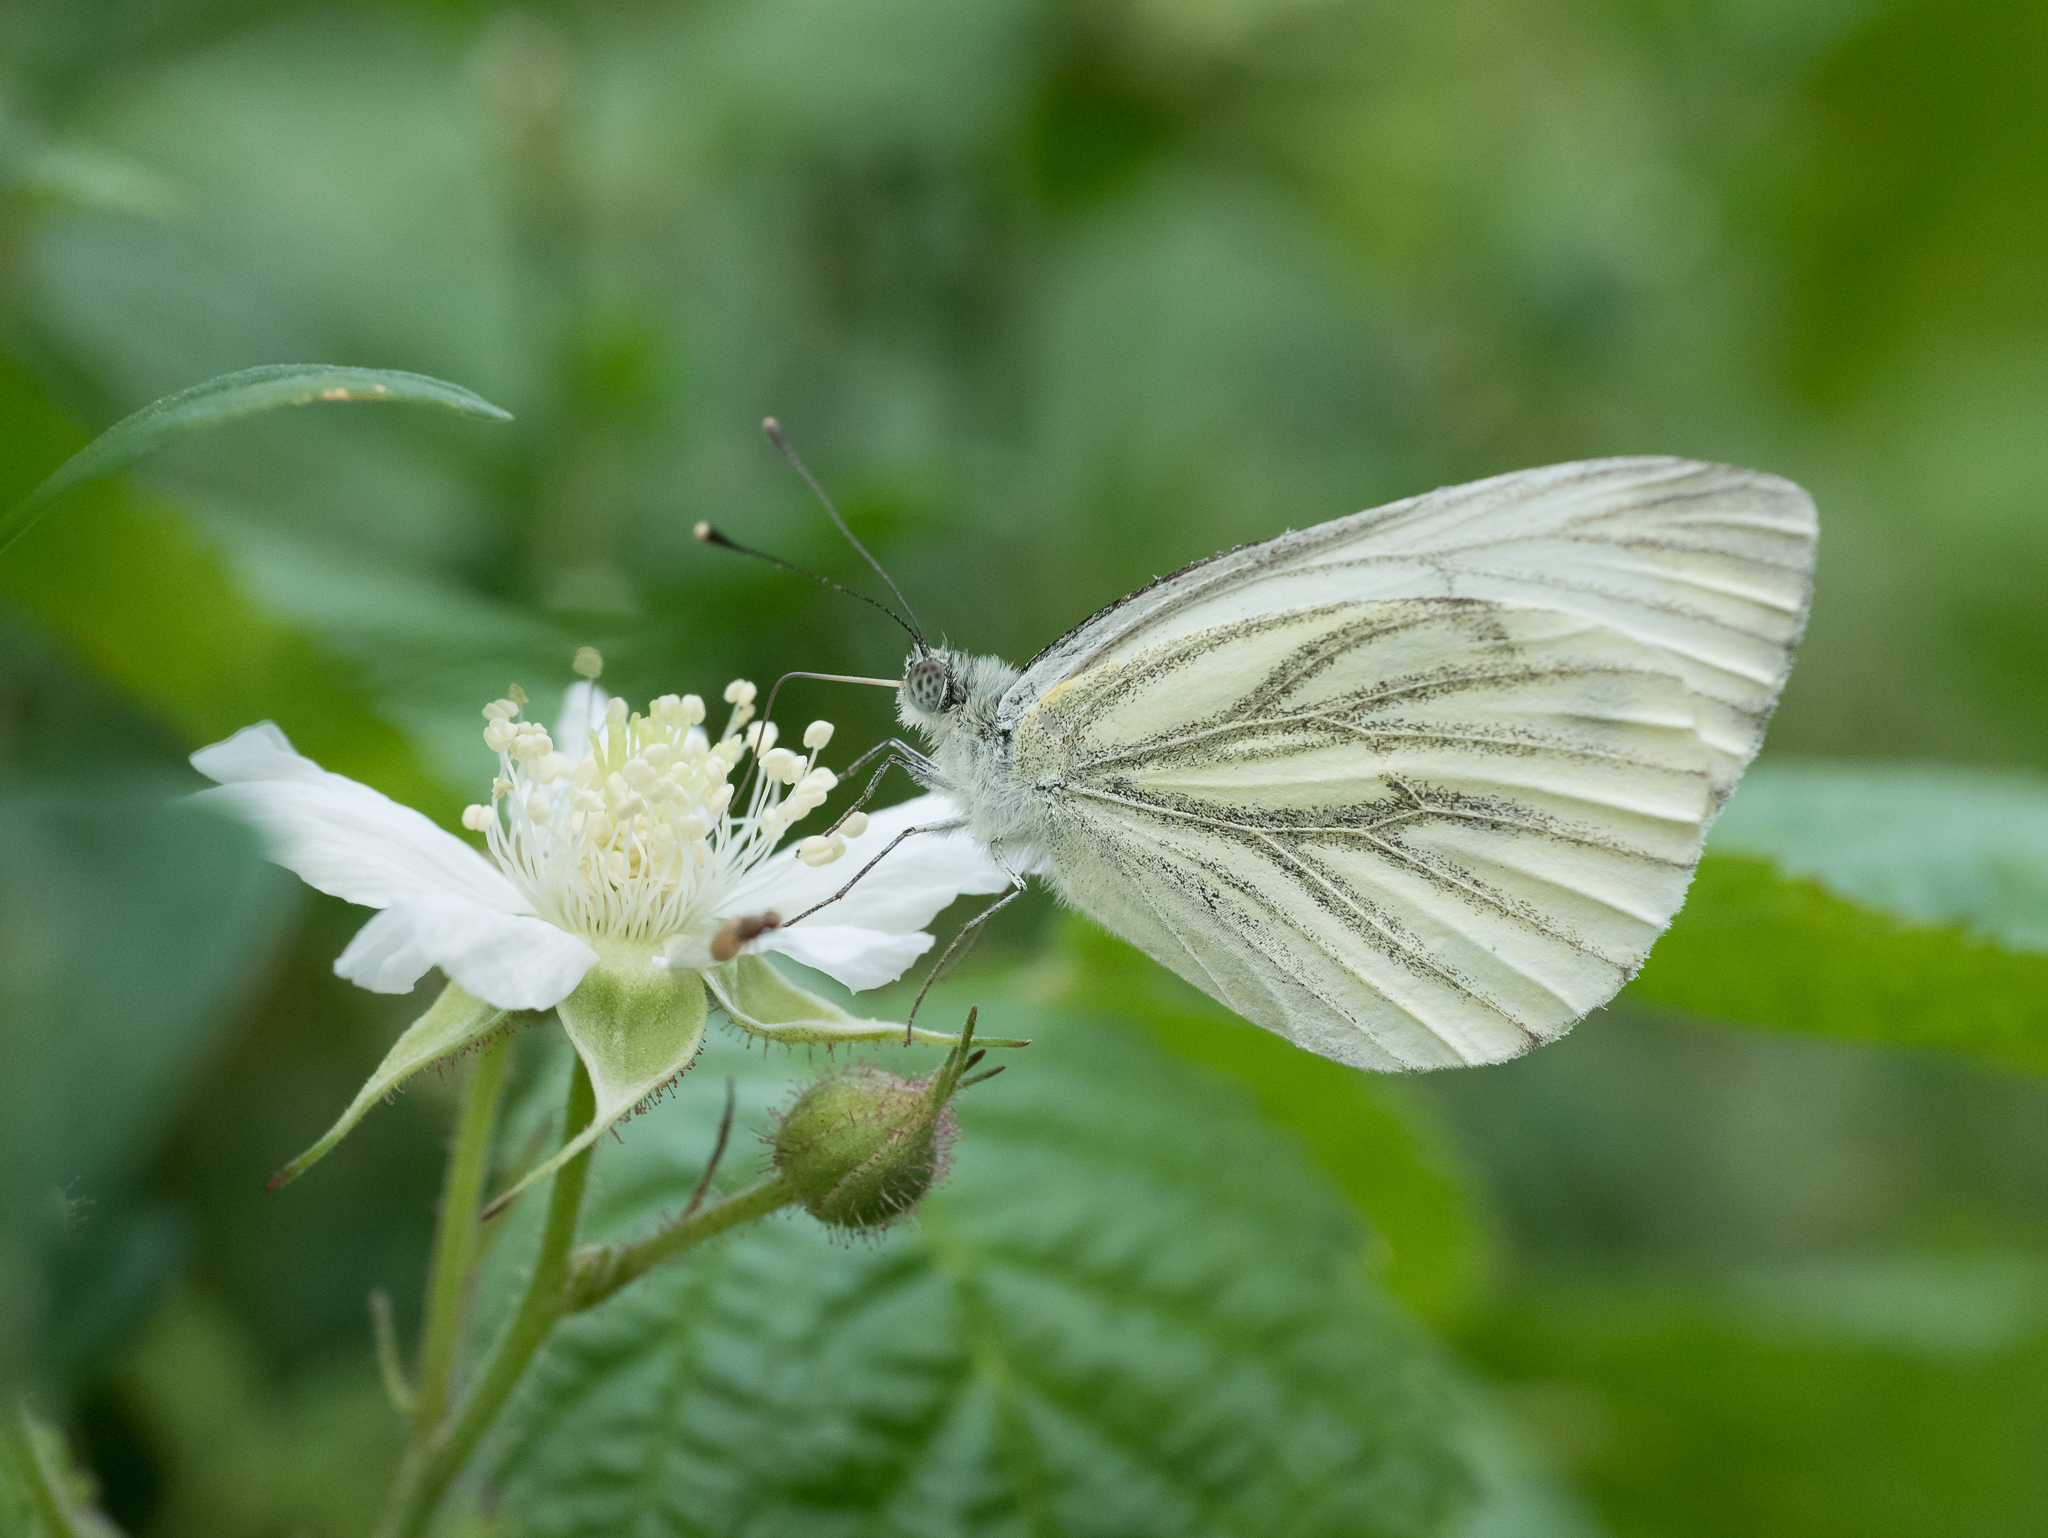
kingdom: Animalia
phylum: Arthropoda
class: Insecta
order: Lepidoptera
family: Pieridae
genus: Pieris
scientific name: Pieris napi
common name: Green-veined white
